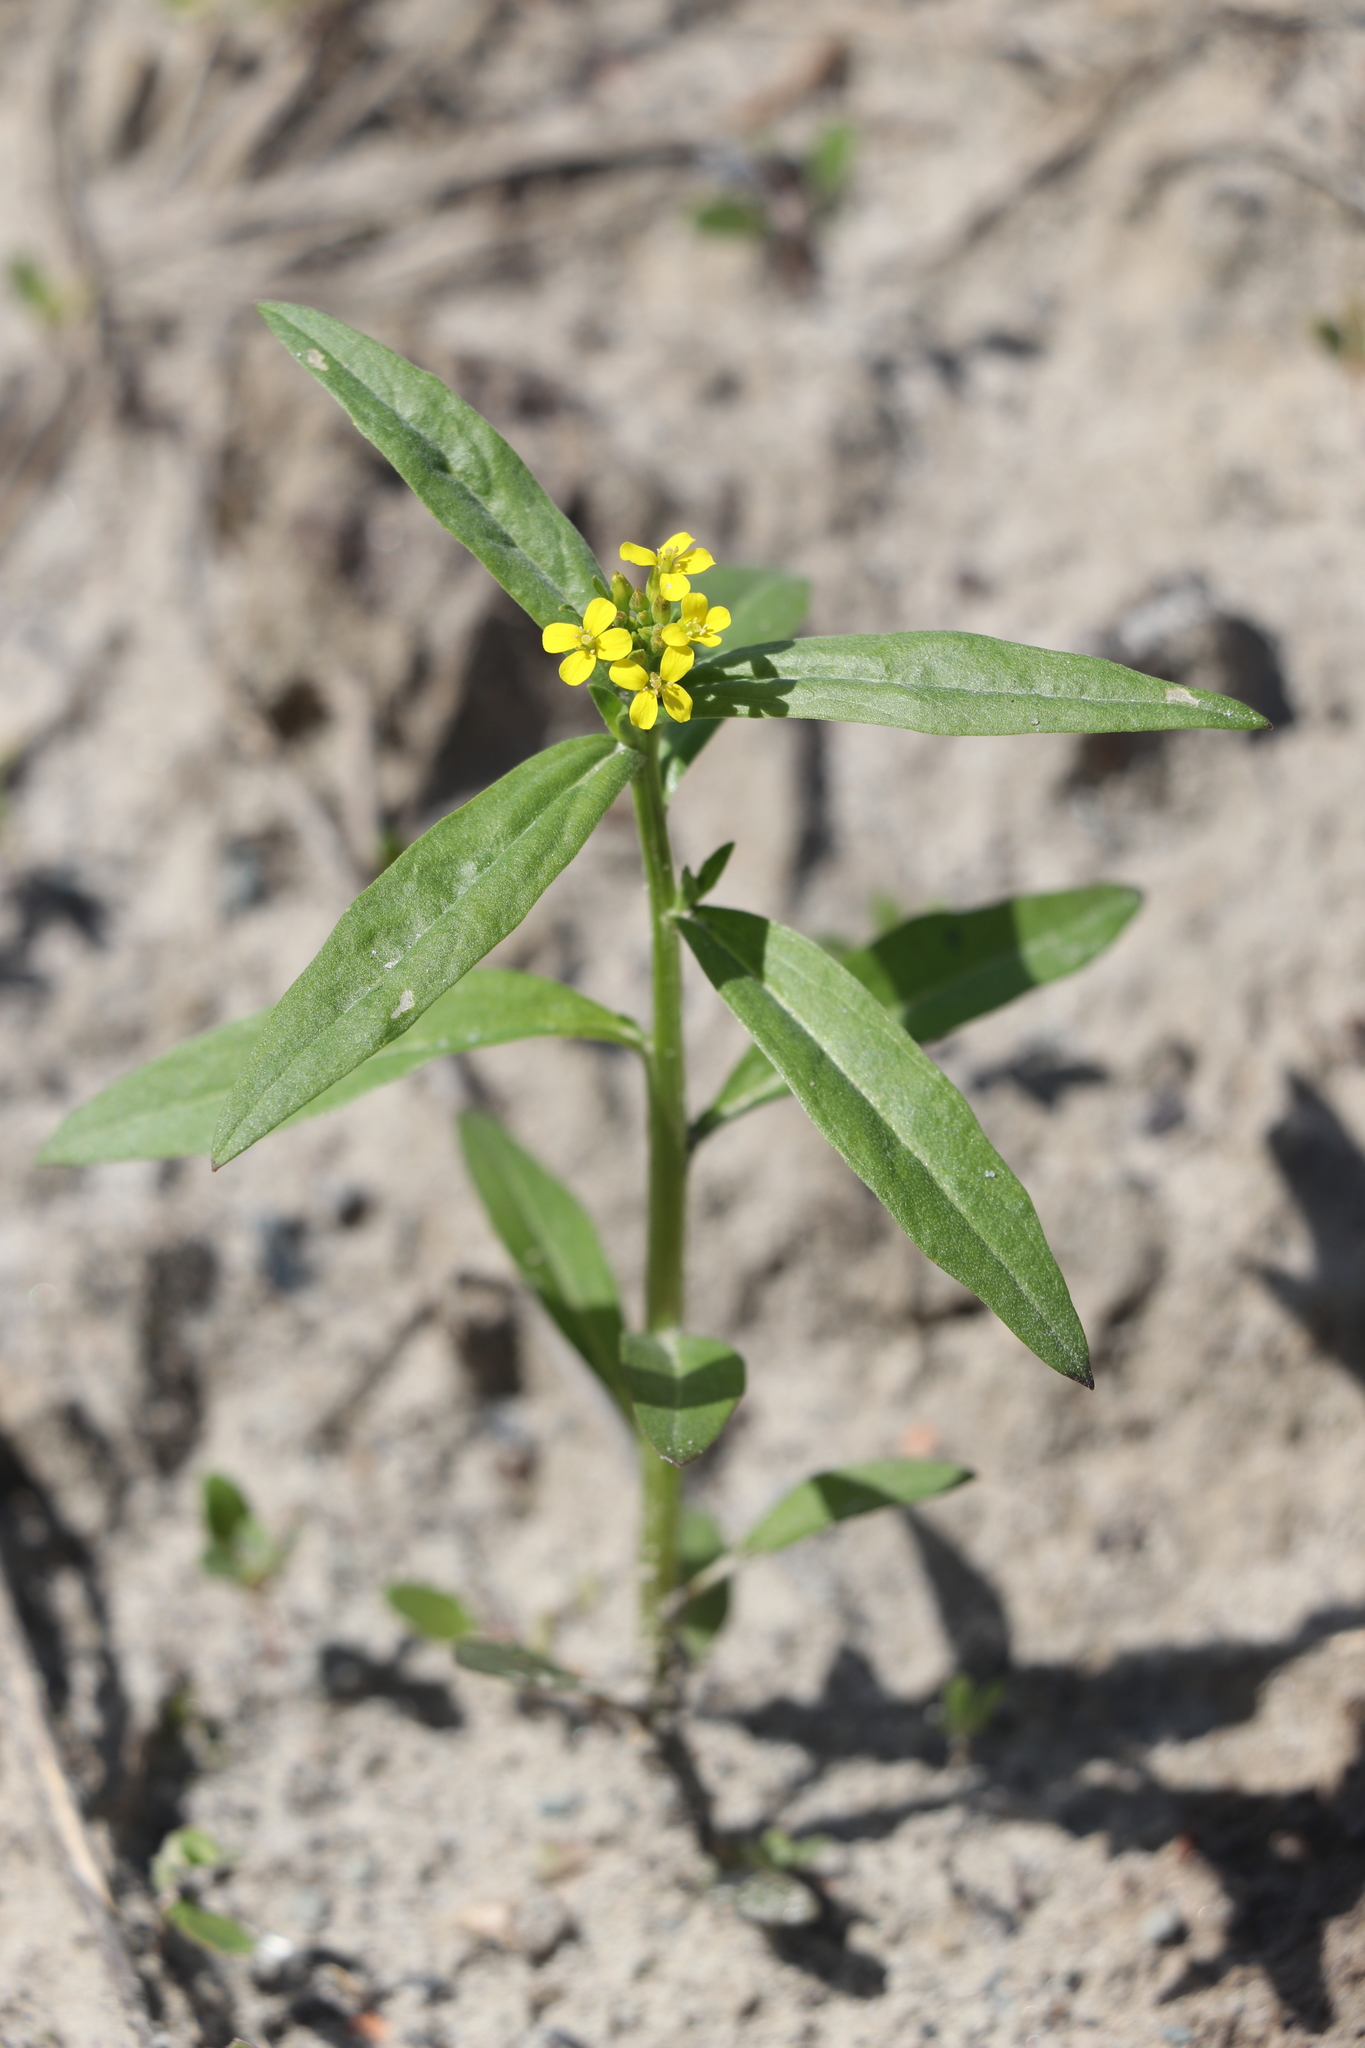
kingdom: Plantae
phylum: Tracheophyta
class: Magnoliopsida
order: Brassicales
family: Brassicaceae
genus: Erysimum
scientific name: Erysimum cheiranthoides
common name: Treacle mustard
